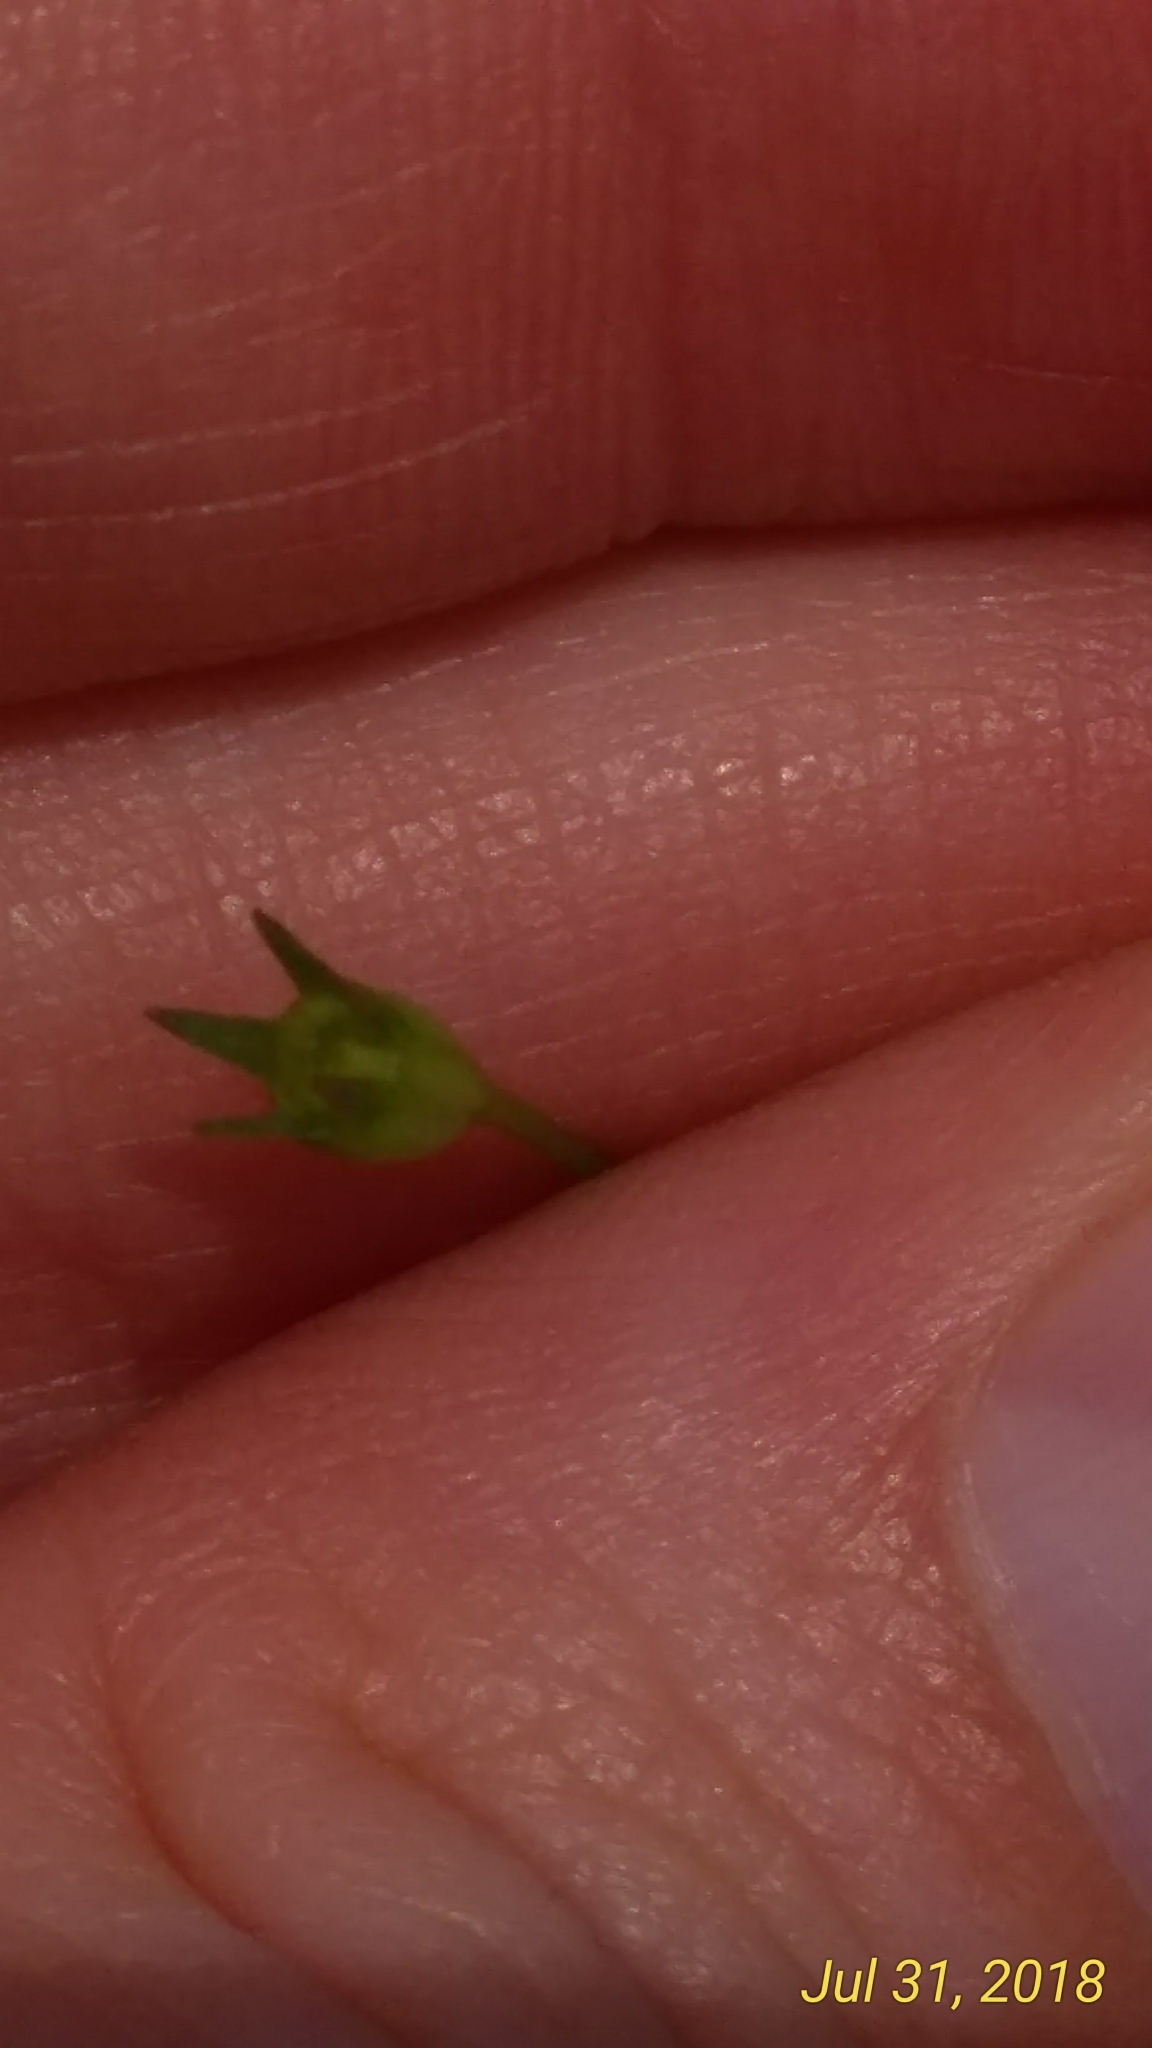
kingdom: Plantae
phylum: Tracheophyta
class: Magnoliopsida
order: Asterales
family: Campanulaceae
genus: Wahlenbergia
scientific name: Wahlenbergia marginata
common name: Southern rockbell
